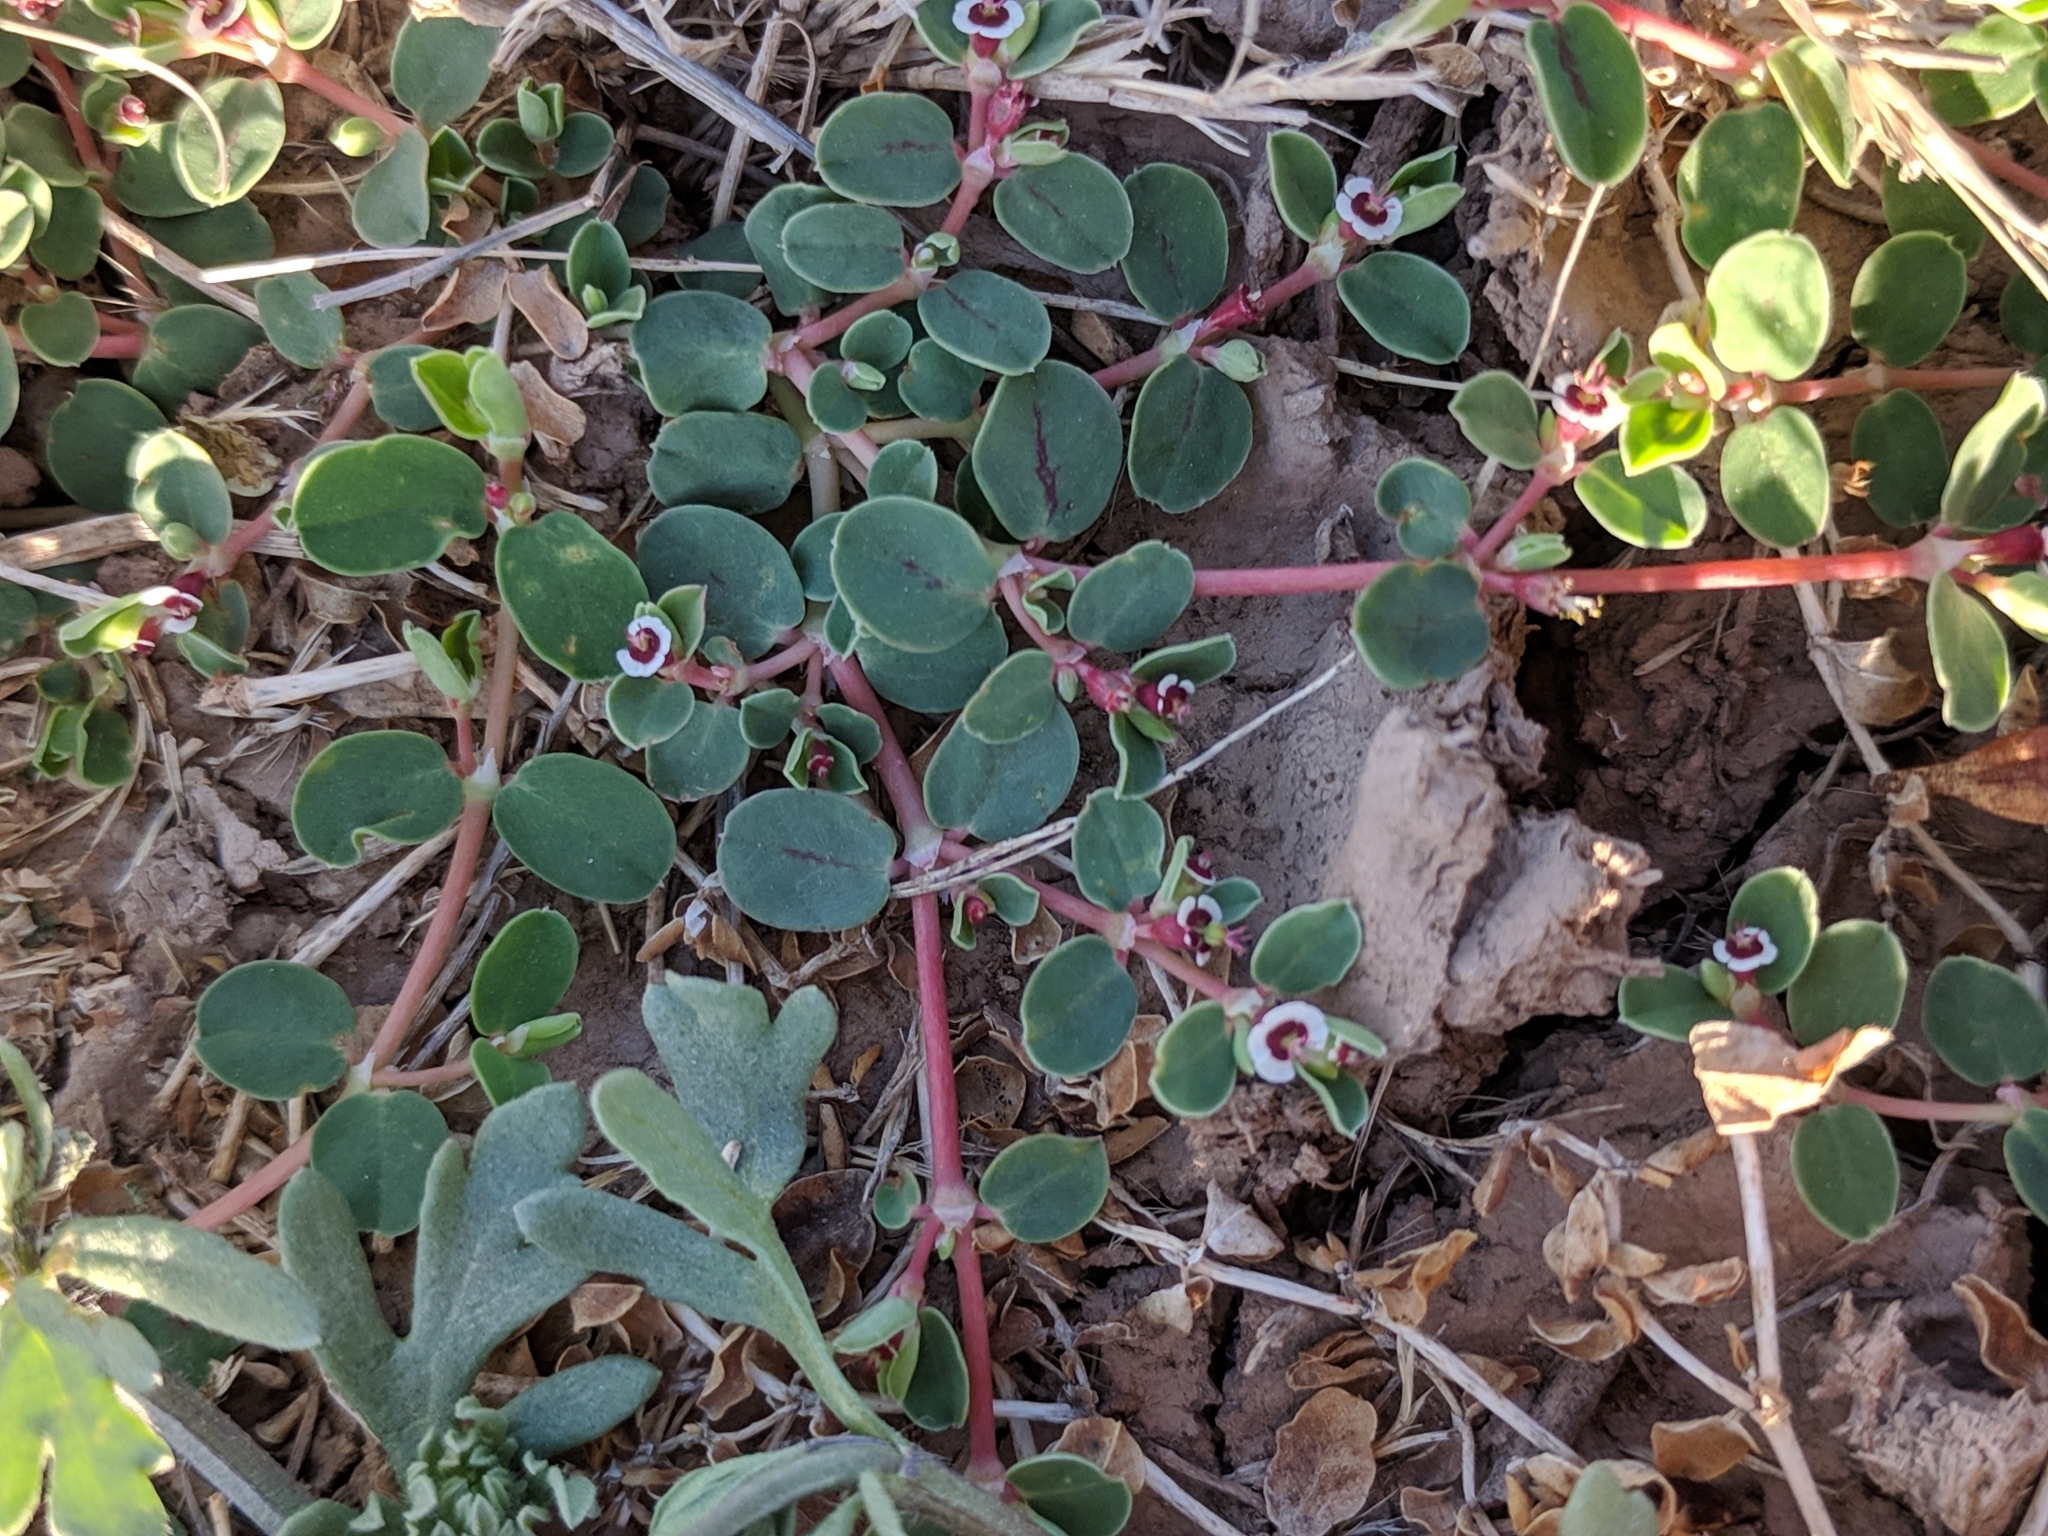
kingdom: Plantae
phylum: Tracheophyta
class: Magnoliopsida
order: Malpighiales
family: Euphorbiaceae
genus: Euphorbia
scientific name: Euphorbia albomarginata
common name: Whitemargin sandmat
